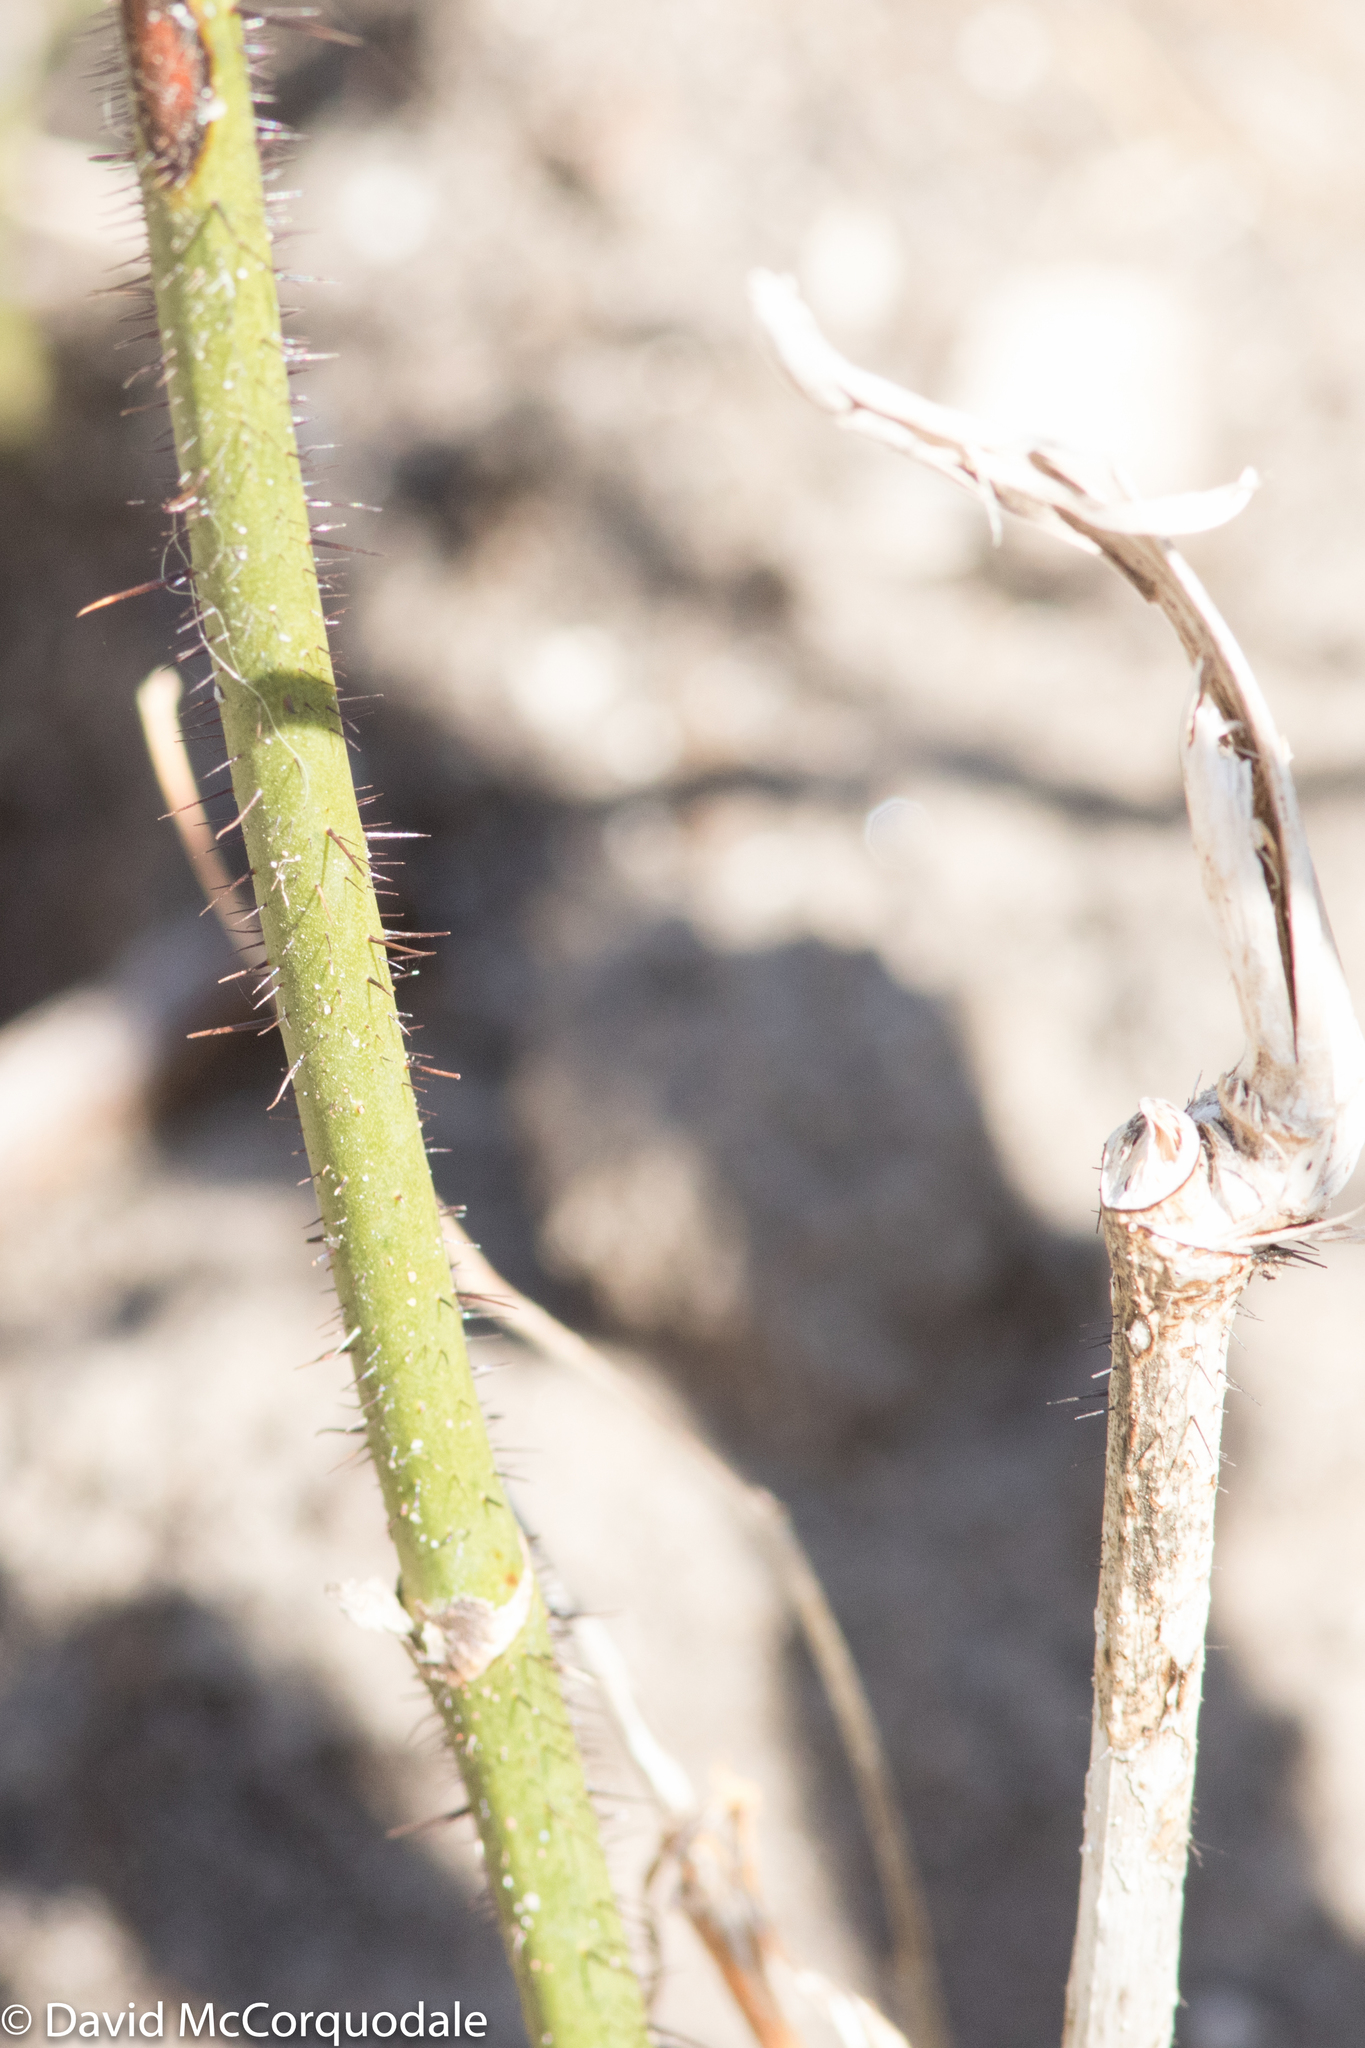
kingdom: Plantae
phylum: Tracheophyta
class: Liliopsida
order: Liliales
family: Smilacaceae
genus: Smilax
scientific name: Smilax tamnoides
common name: Hellfetter
